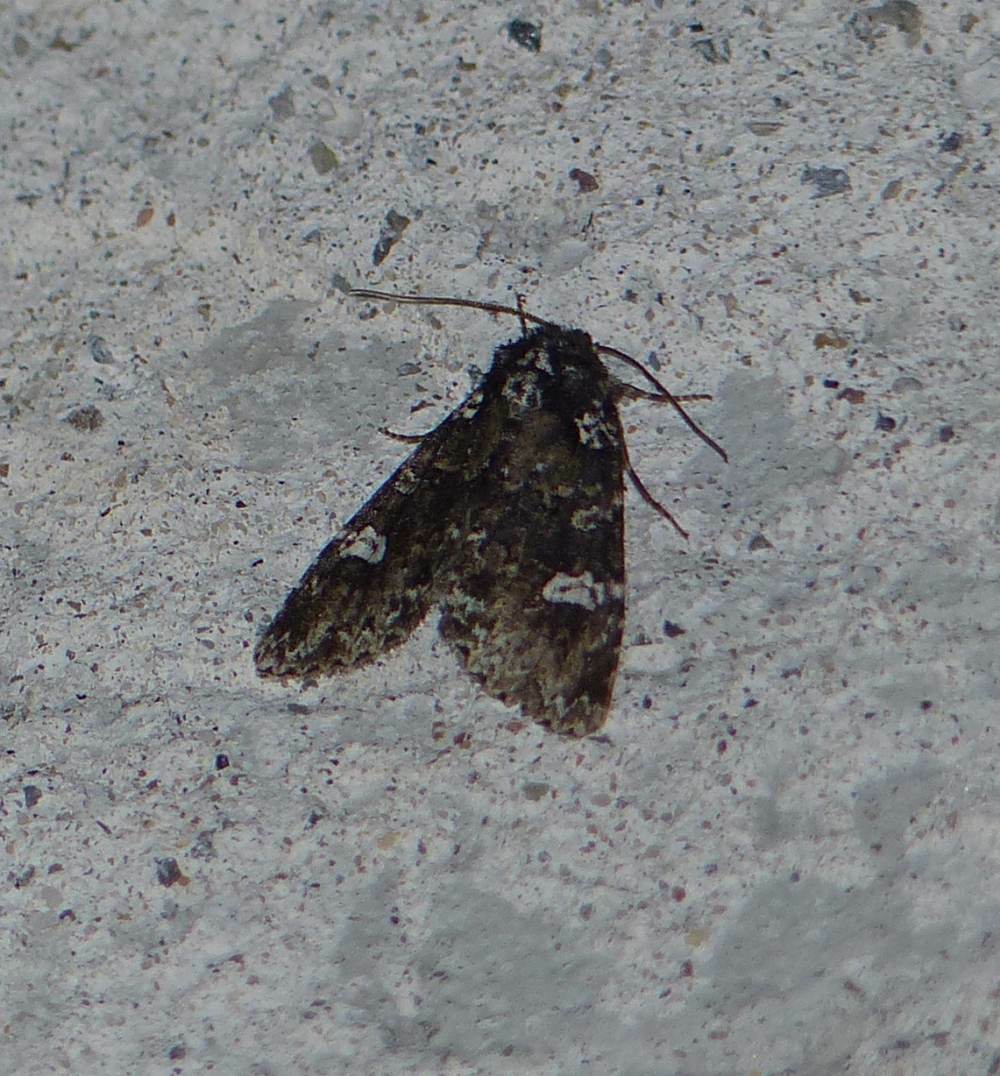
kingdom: Animalia
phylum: Arthropoda
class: Insecta
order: Lepidoptera
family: Noctuidae
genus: Melanchra
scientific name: Melanchra adjuncta
